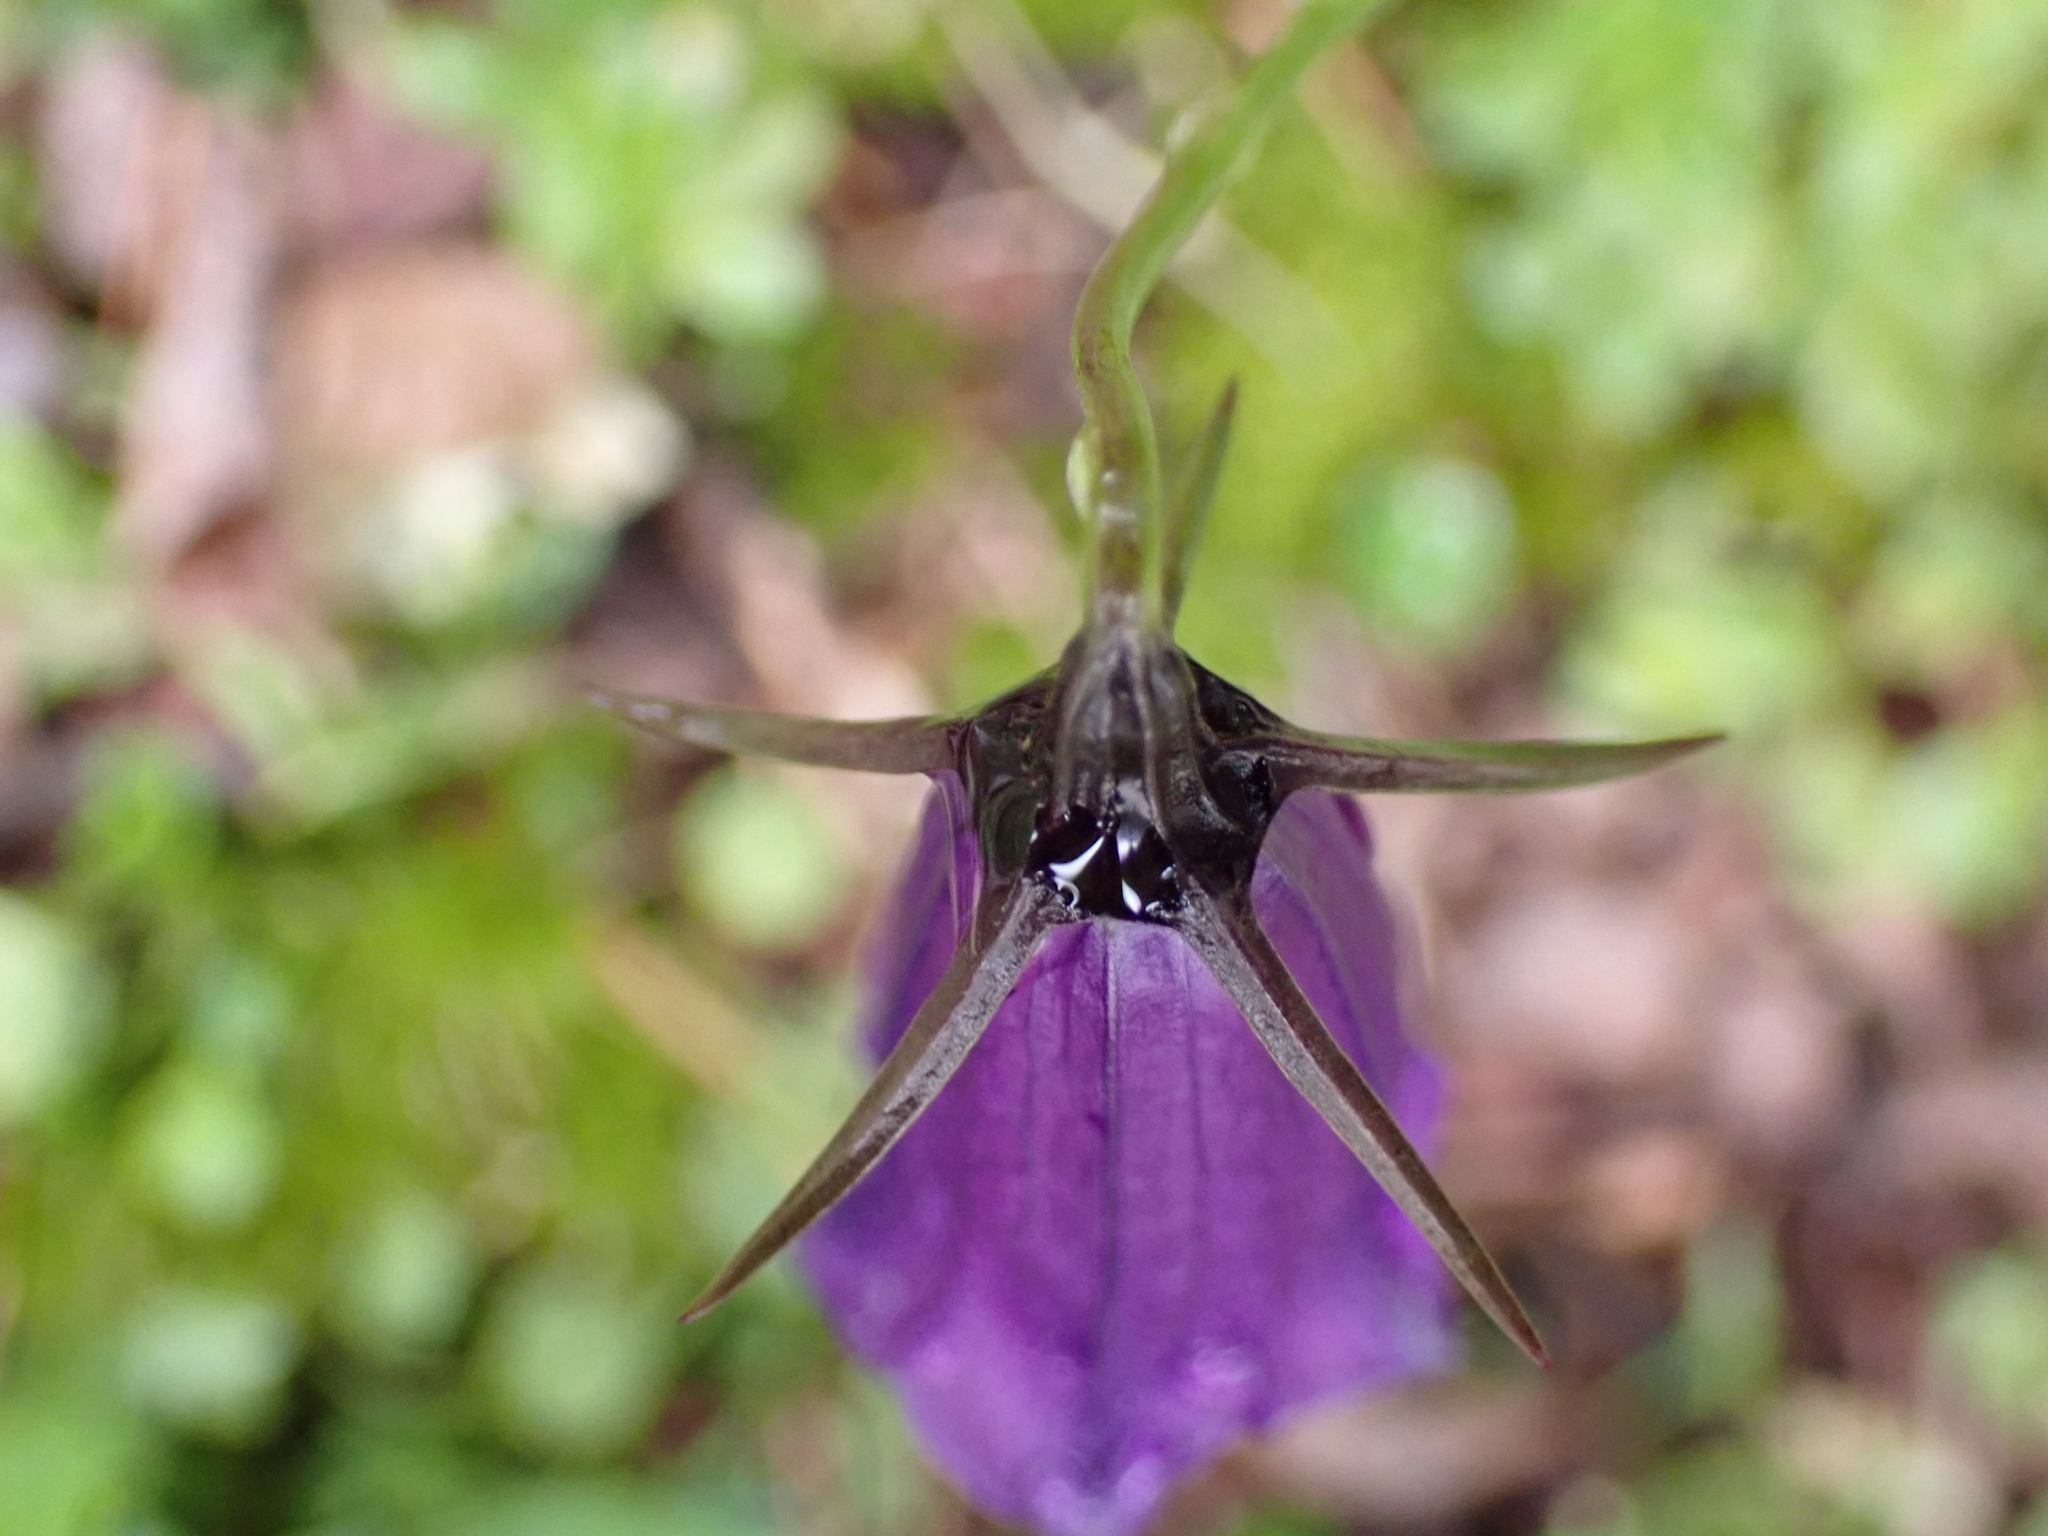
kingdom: Plantae
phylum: Tracheophyta
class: Magnoliopsida
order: Asterales
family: Campanulaceae
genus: Campanula
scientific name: Campanula scheuchzeri
